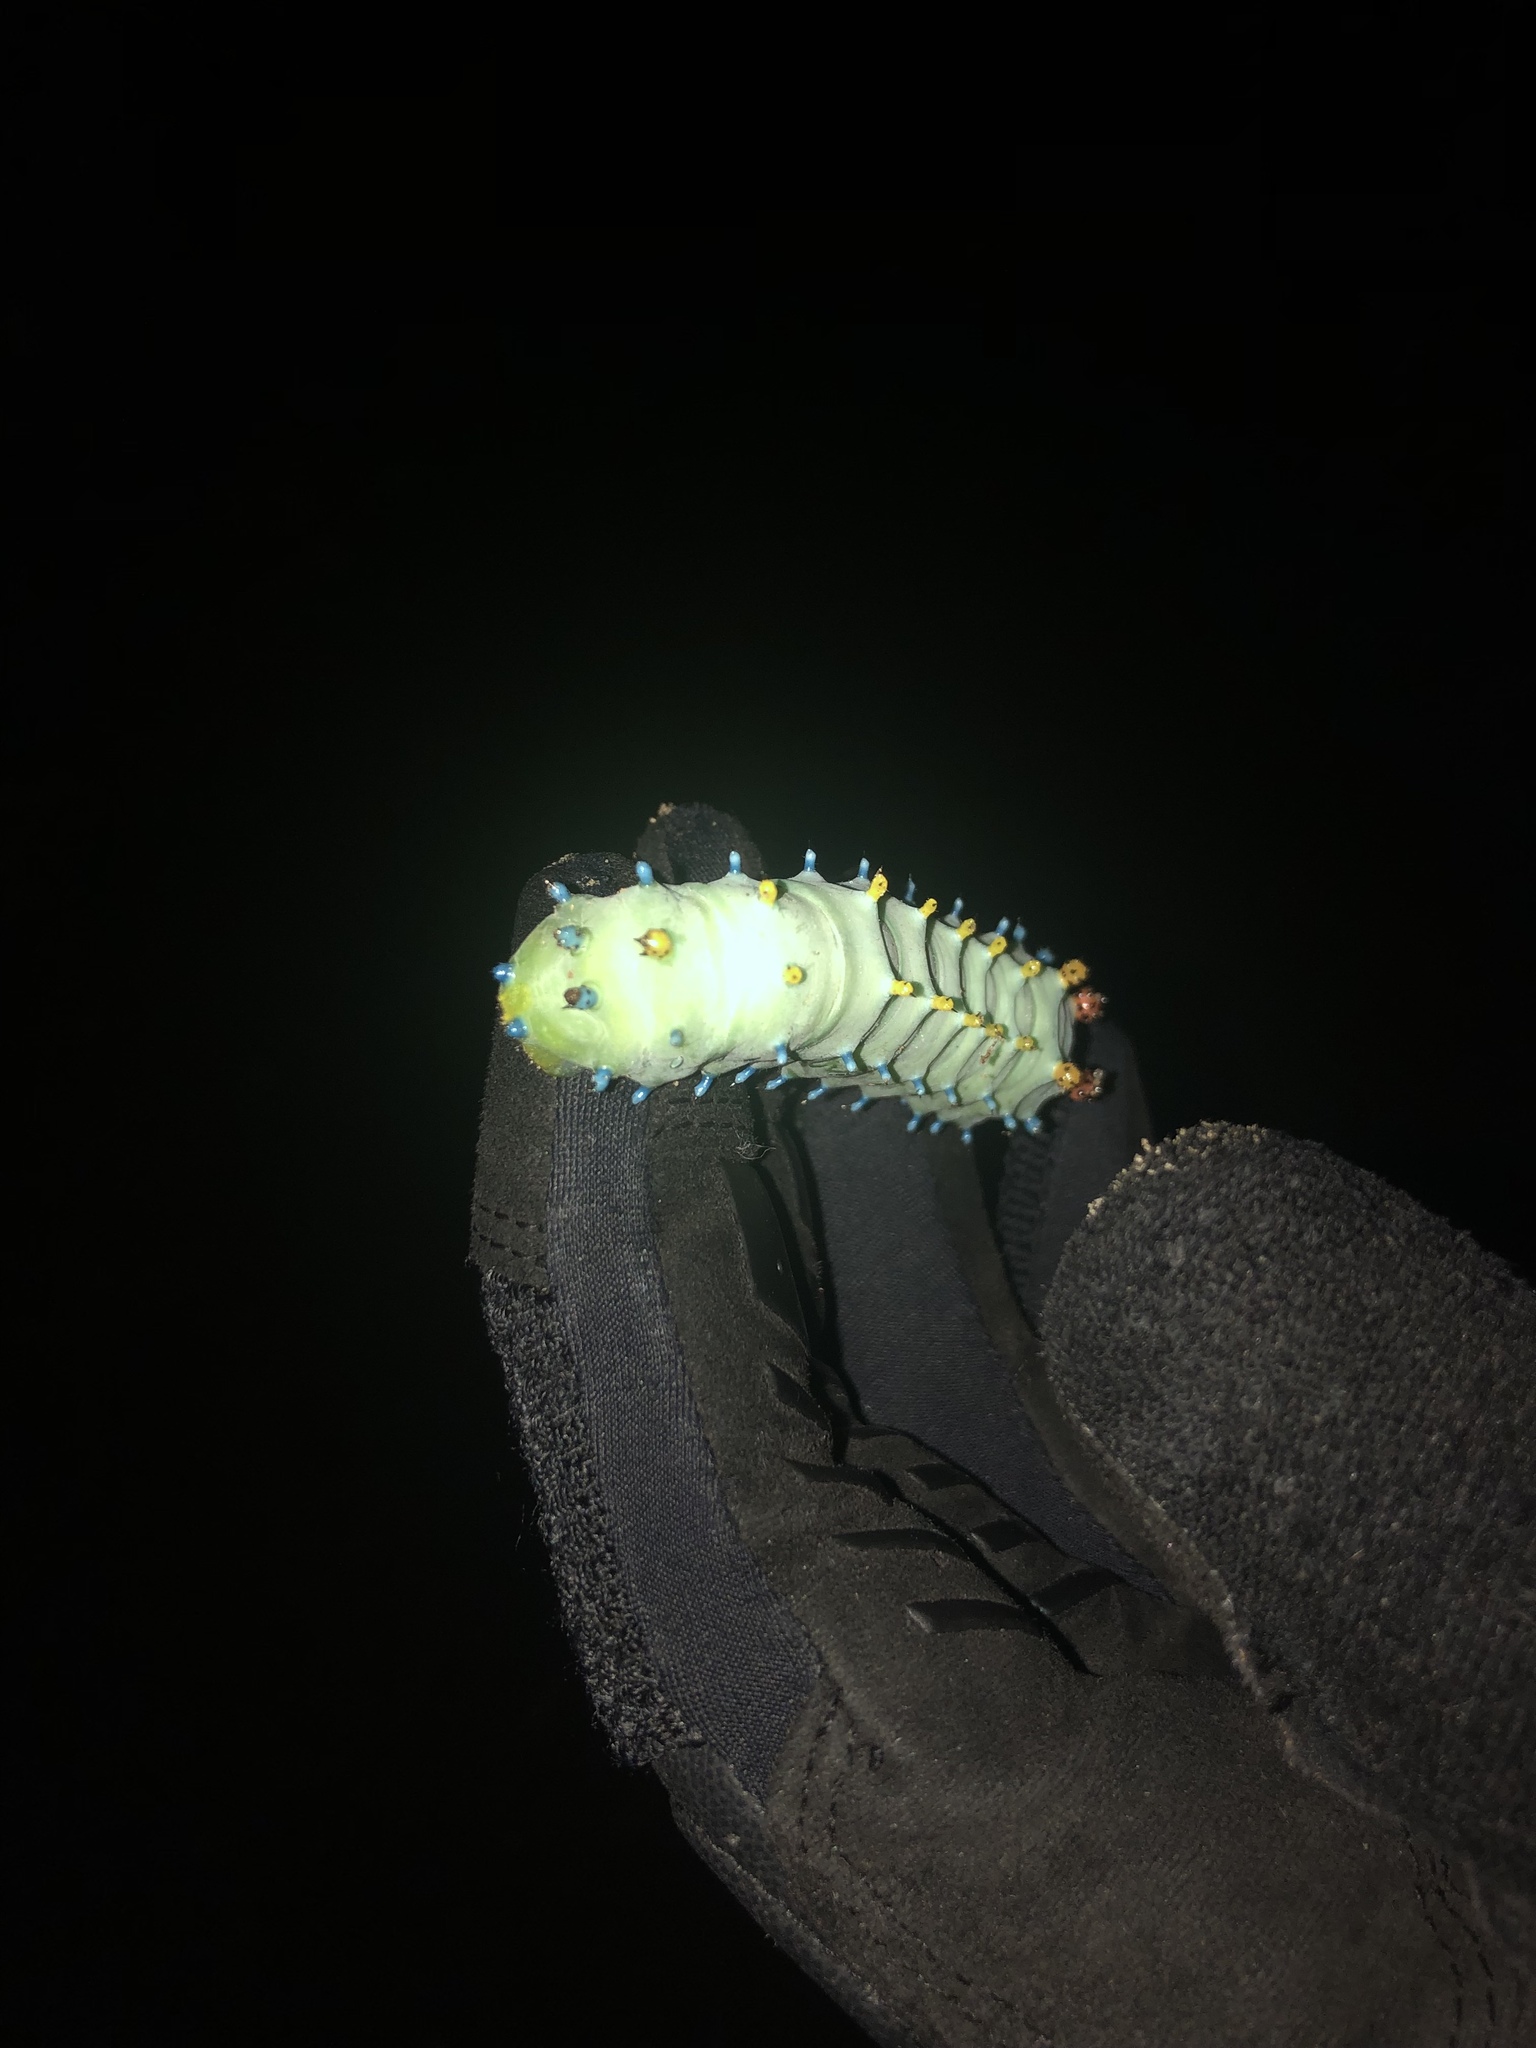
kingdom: Animalia
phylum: Arthropoda
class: Insecta
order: Lepidoptera
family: Saturniidae
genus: Hyalophora
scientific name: Hyalophora cecropia
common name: Cecropia silkmoth
